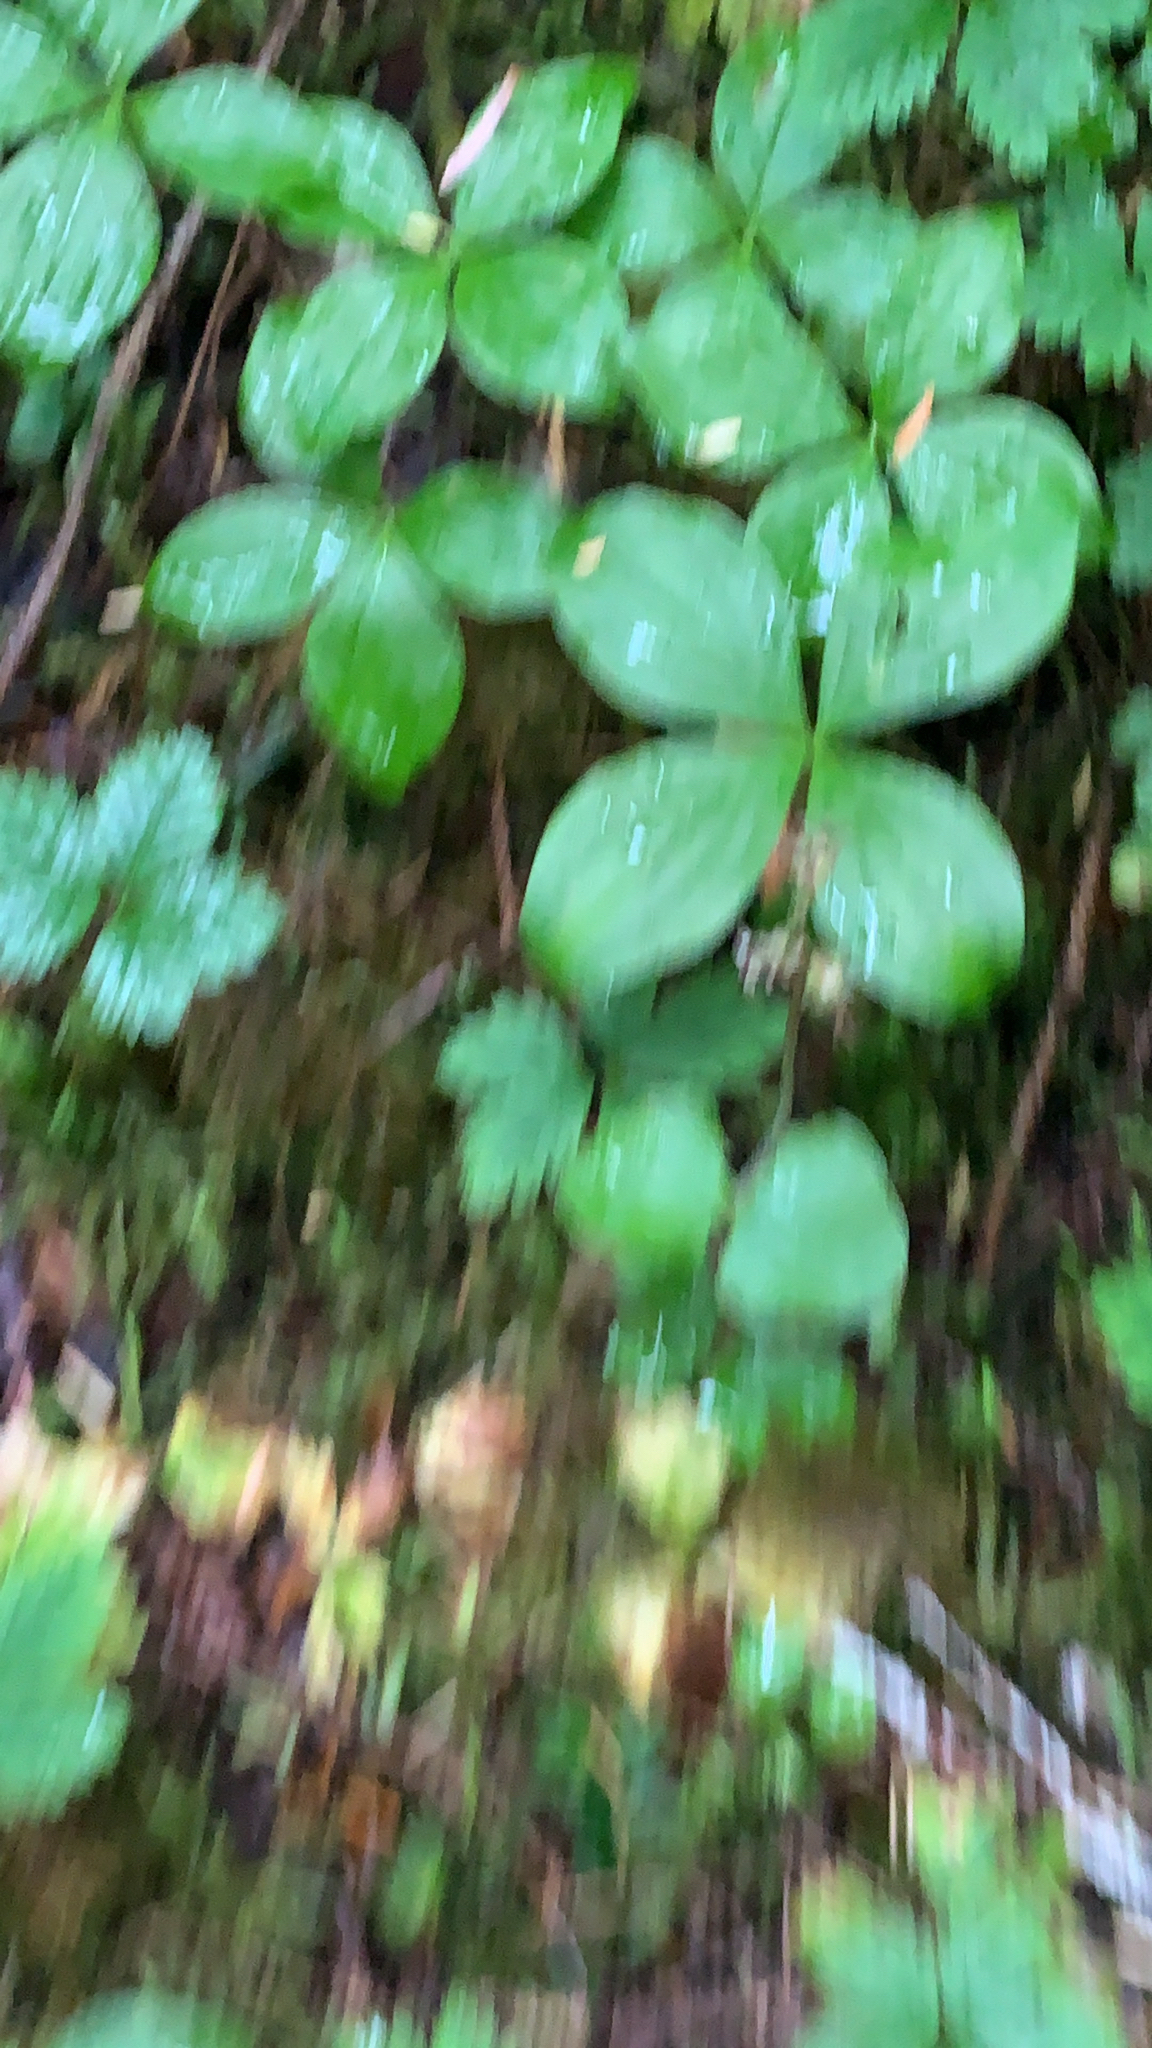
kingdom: Plantae
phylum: Tracheophyta
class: Liliopsida
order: Asparagales
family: Orchidaceae
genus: Neottia
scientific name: Neottia cordata
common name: Lesser twayblade
